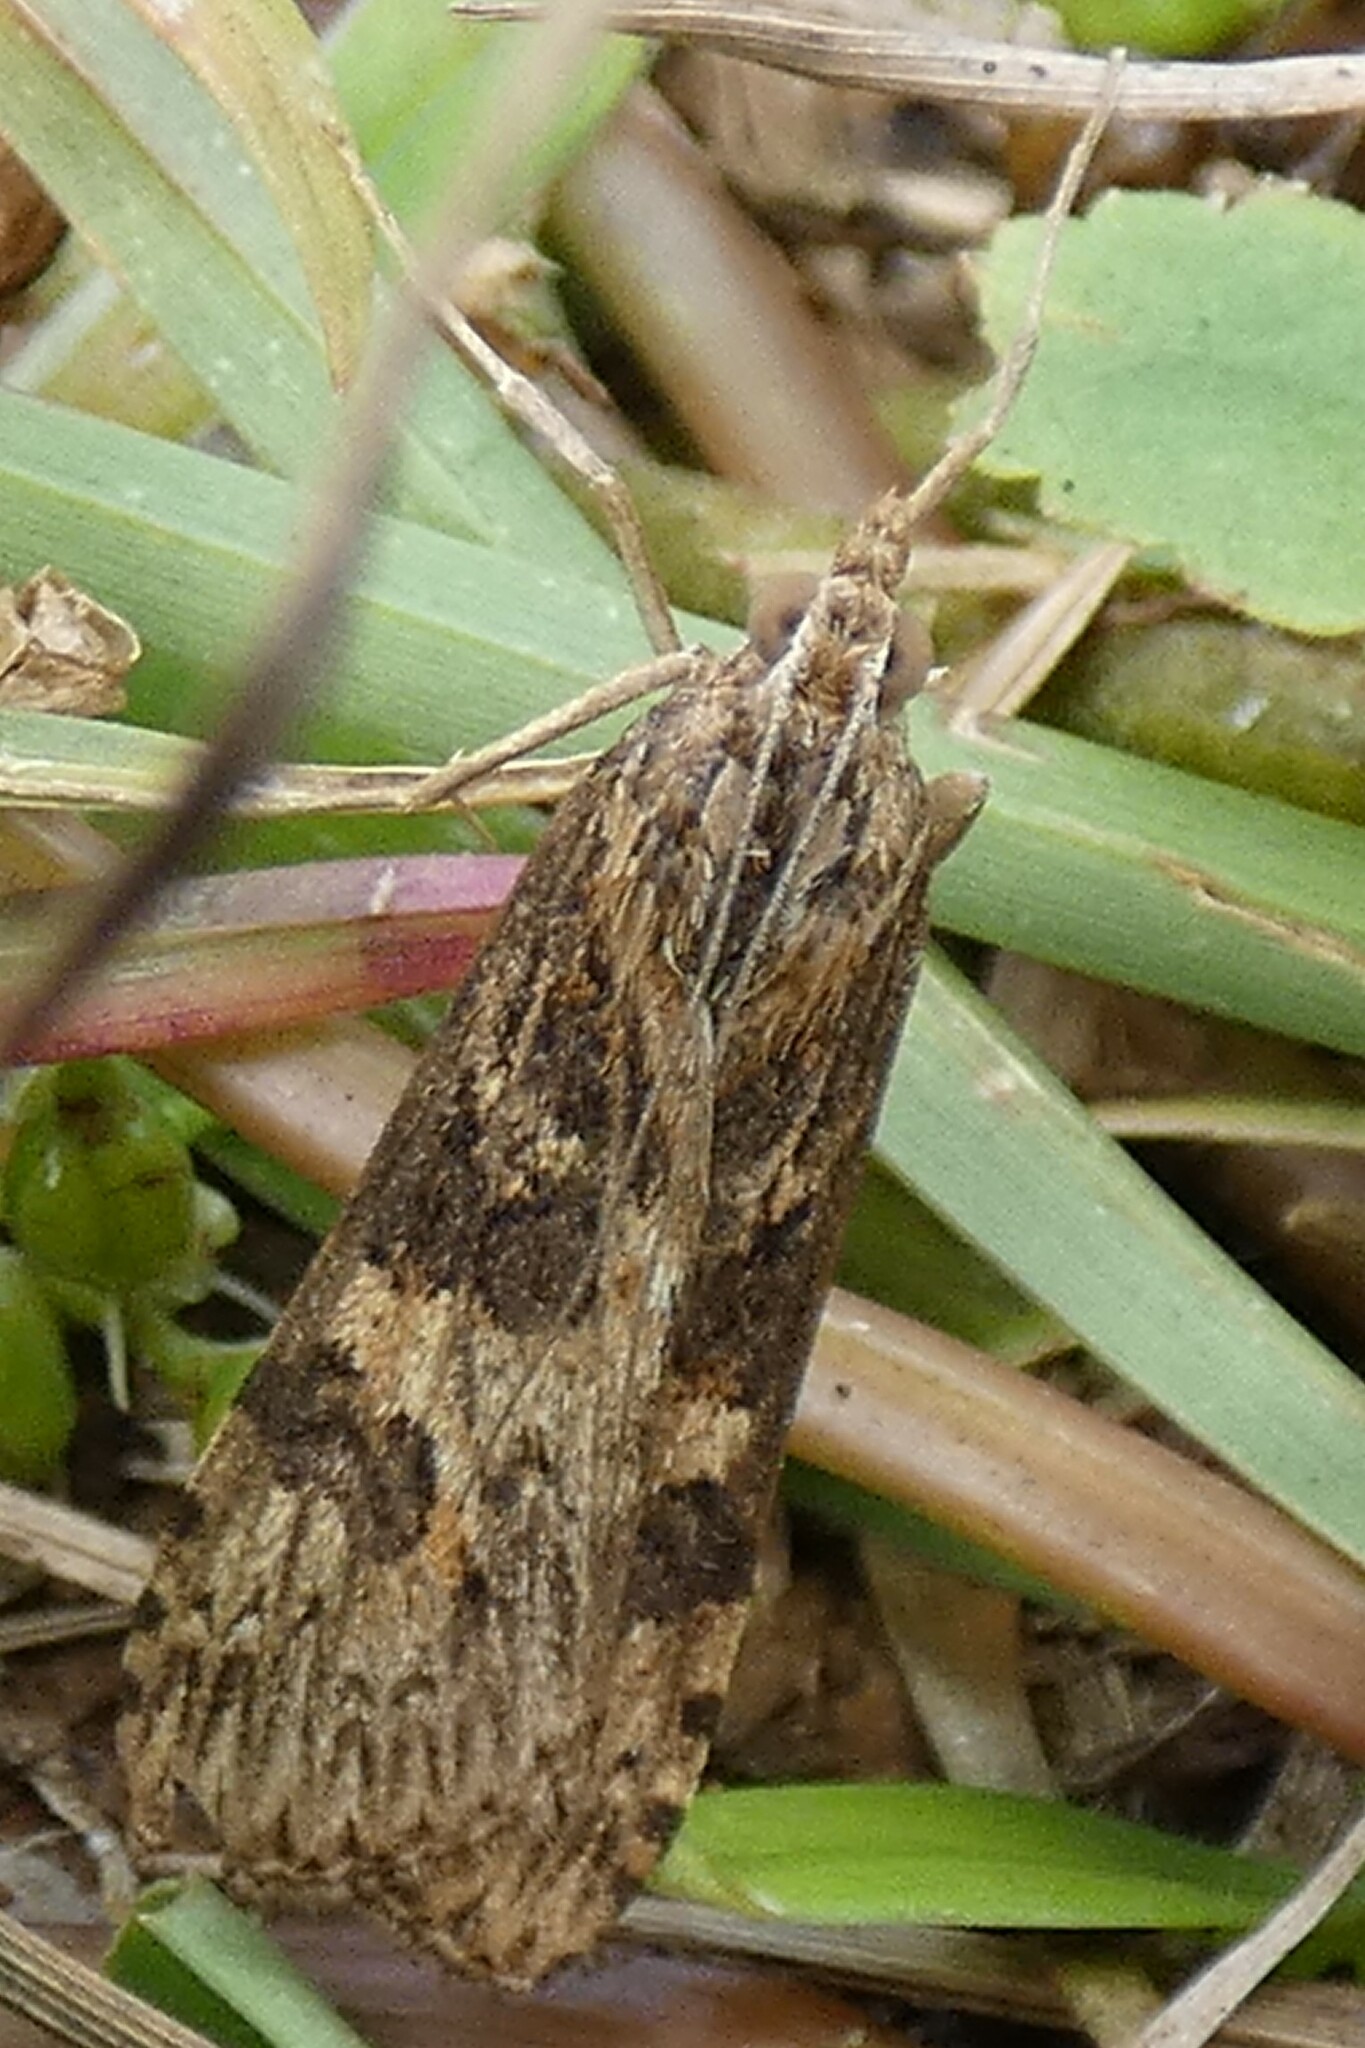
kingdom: Animalia
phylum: Arthropoda
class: Insecta
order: Lepidoptera
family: Crambidae
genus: Nomophila
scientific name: Nomophila nearctica
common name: American rush veneer
